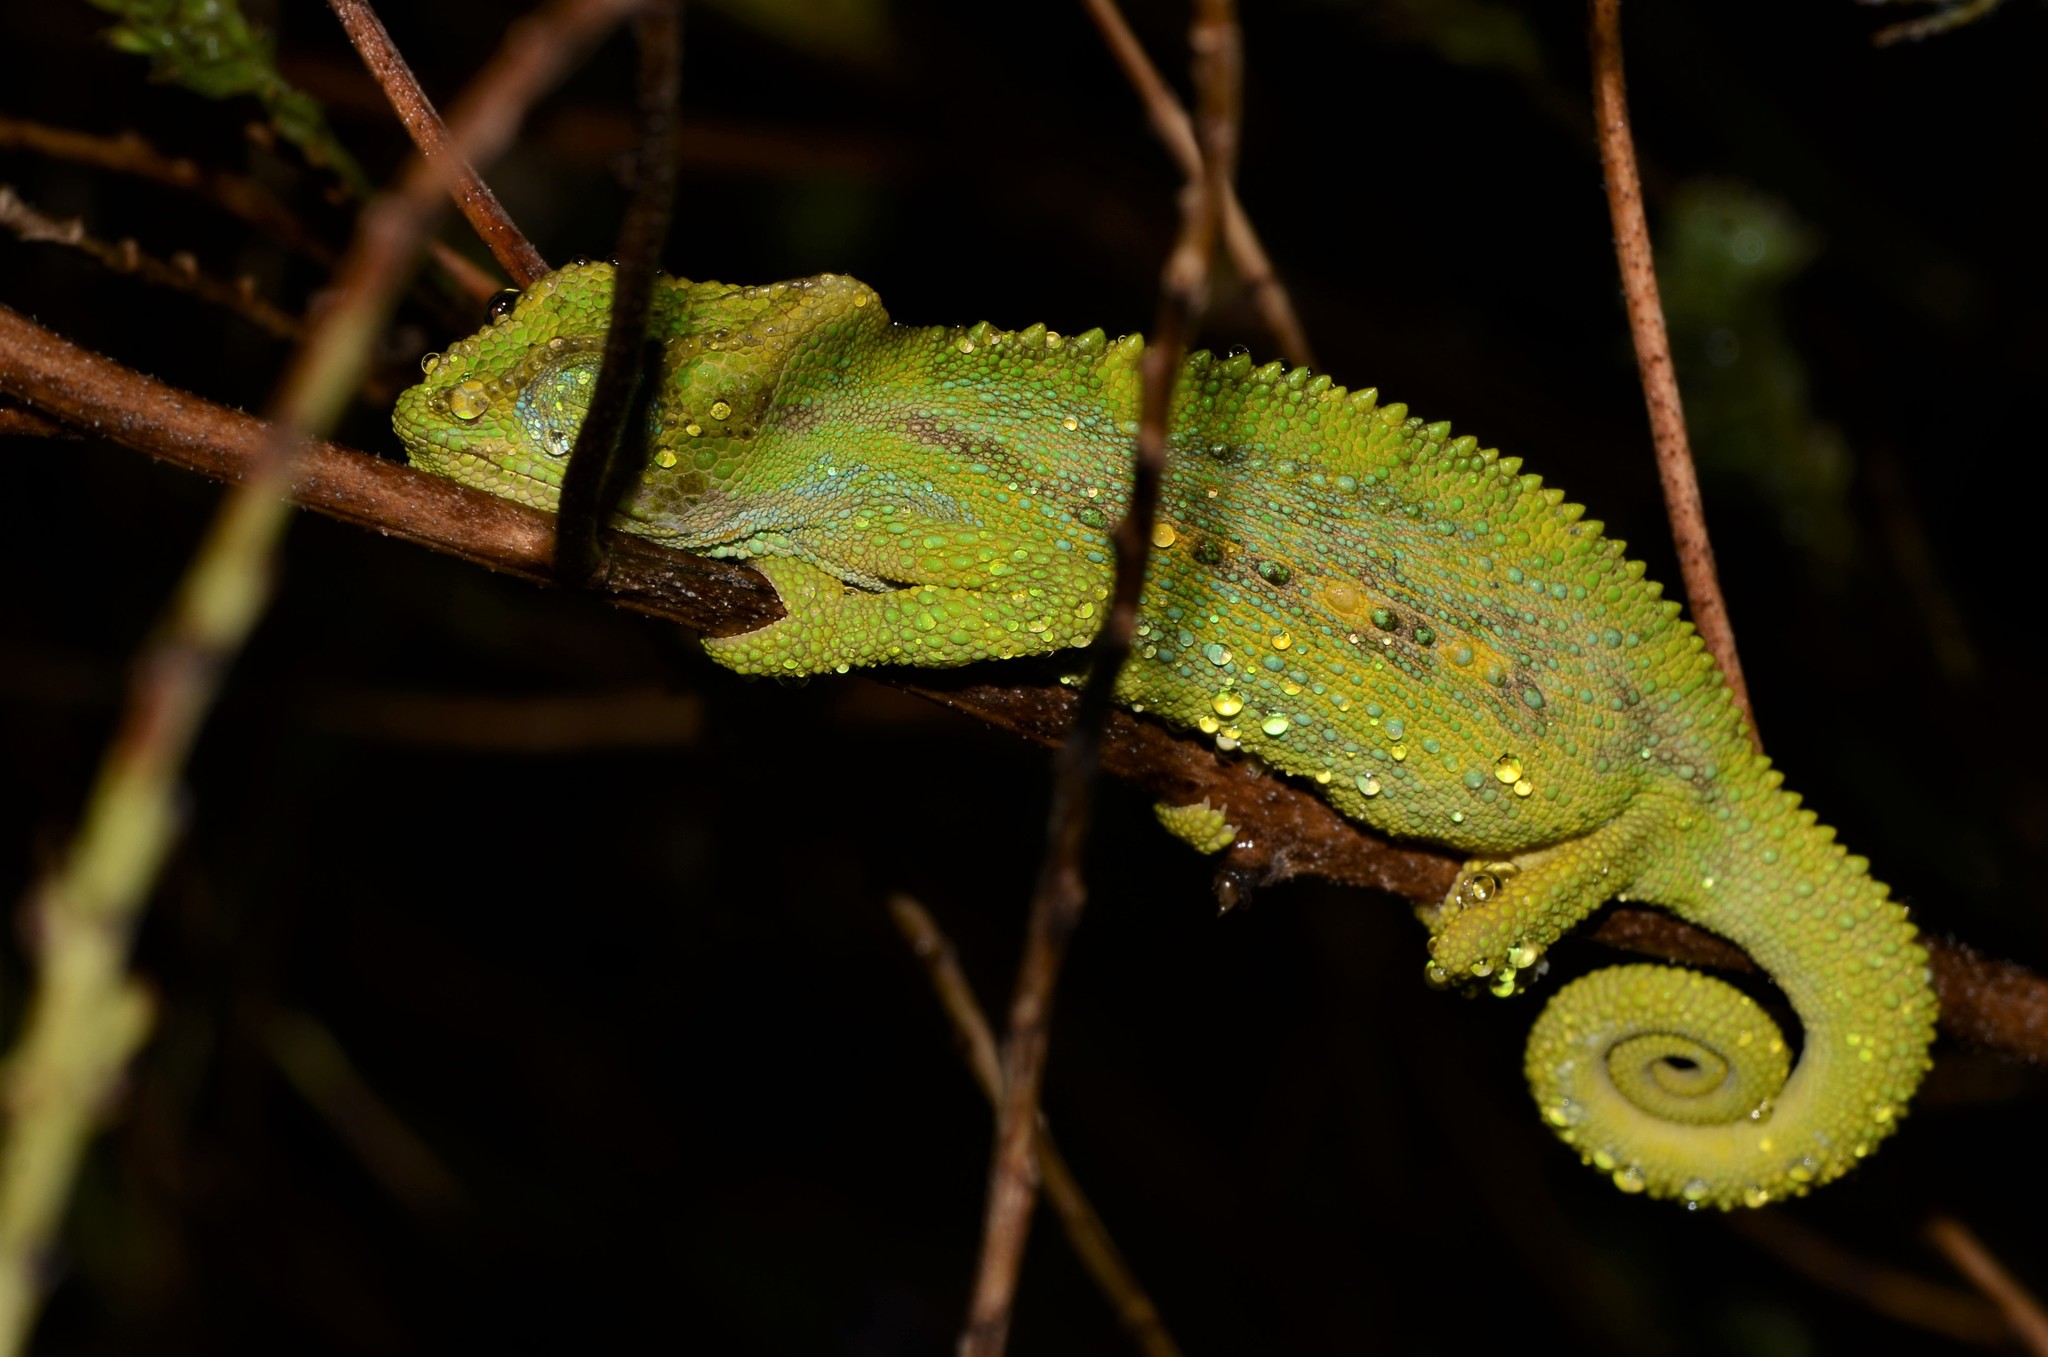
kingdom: Animalia
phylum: Chordata
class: Squamata
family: Chamaeleonidae
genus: Bradypodion
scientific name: Bradypodion pumilum
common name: Cape dwarf chameleon
